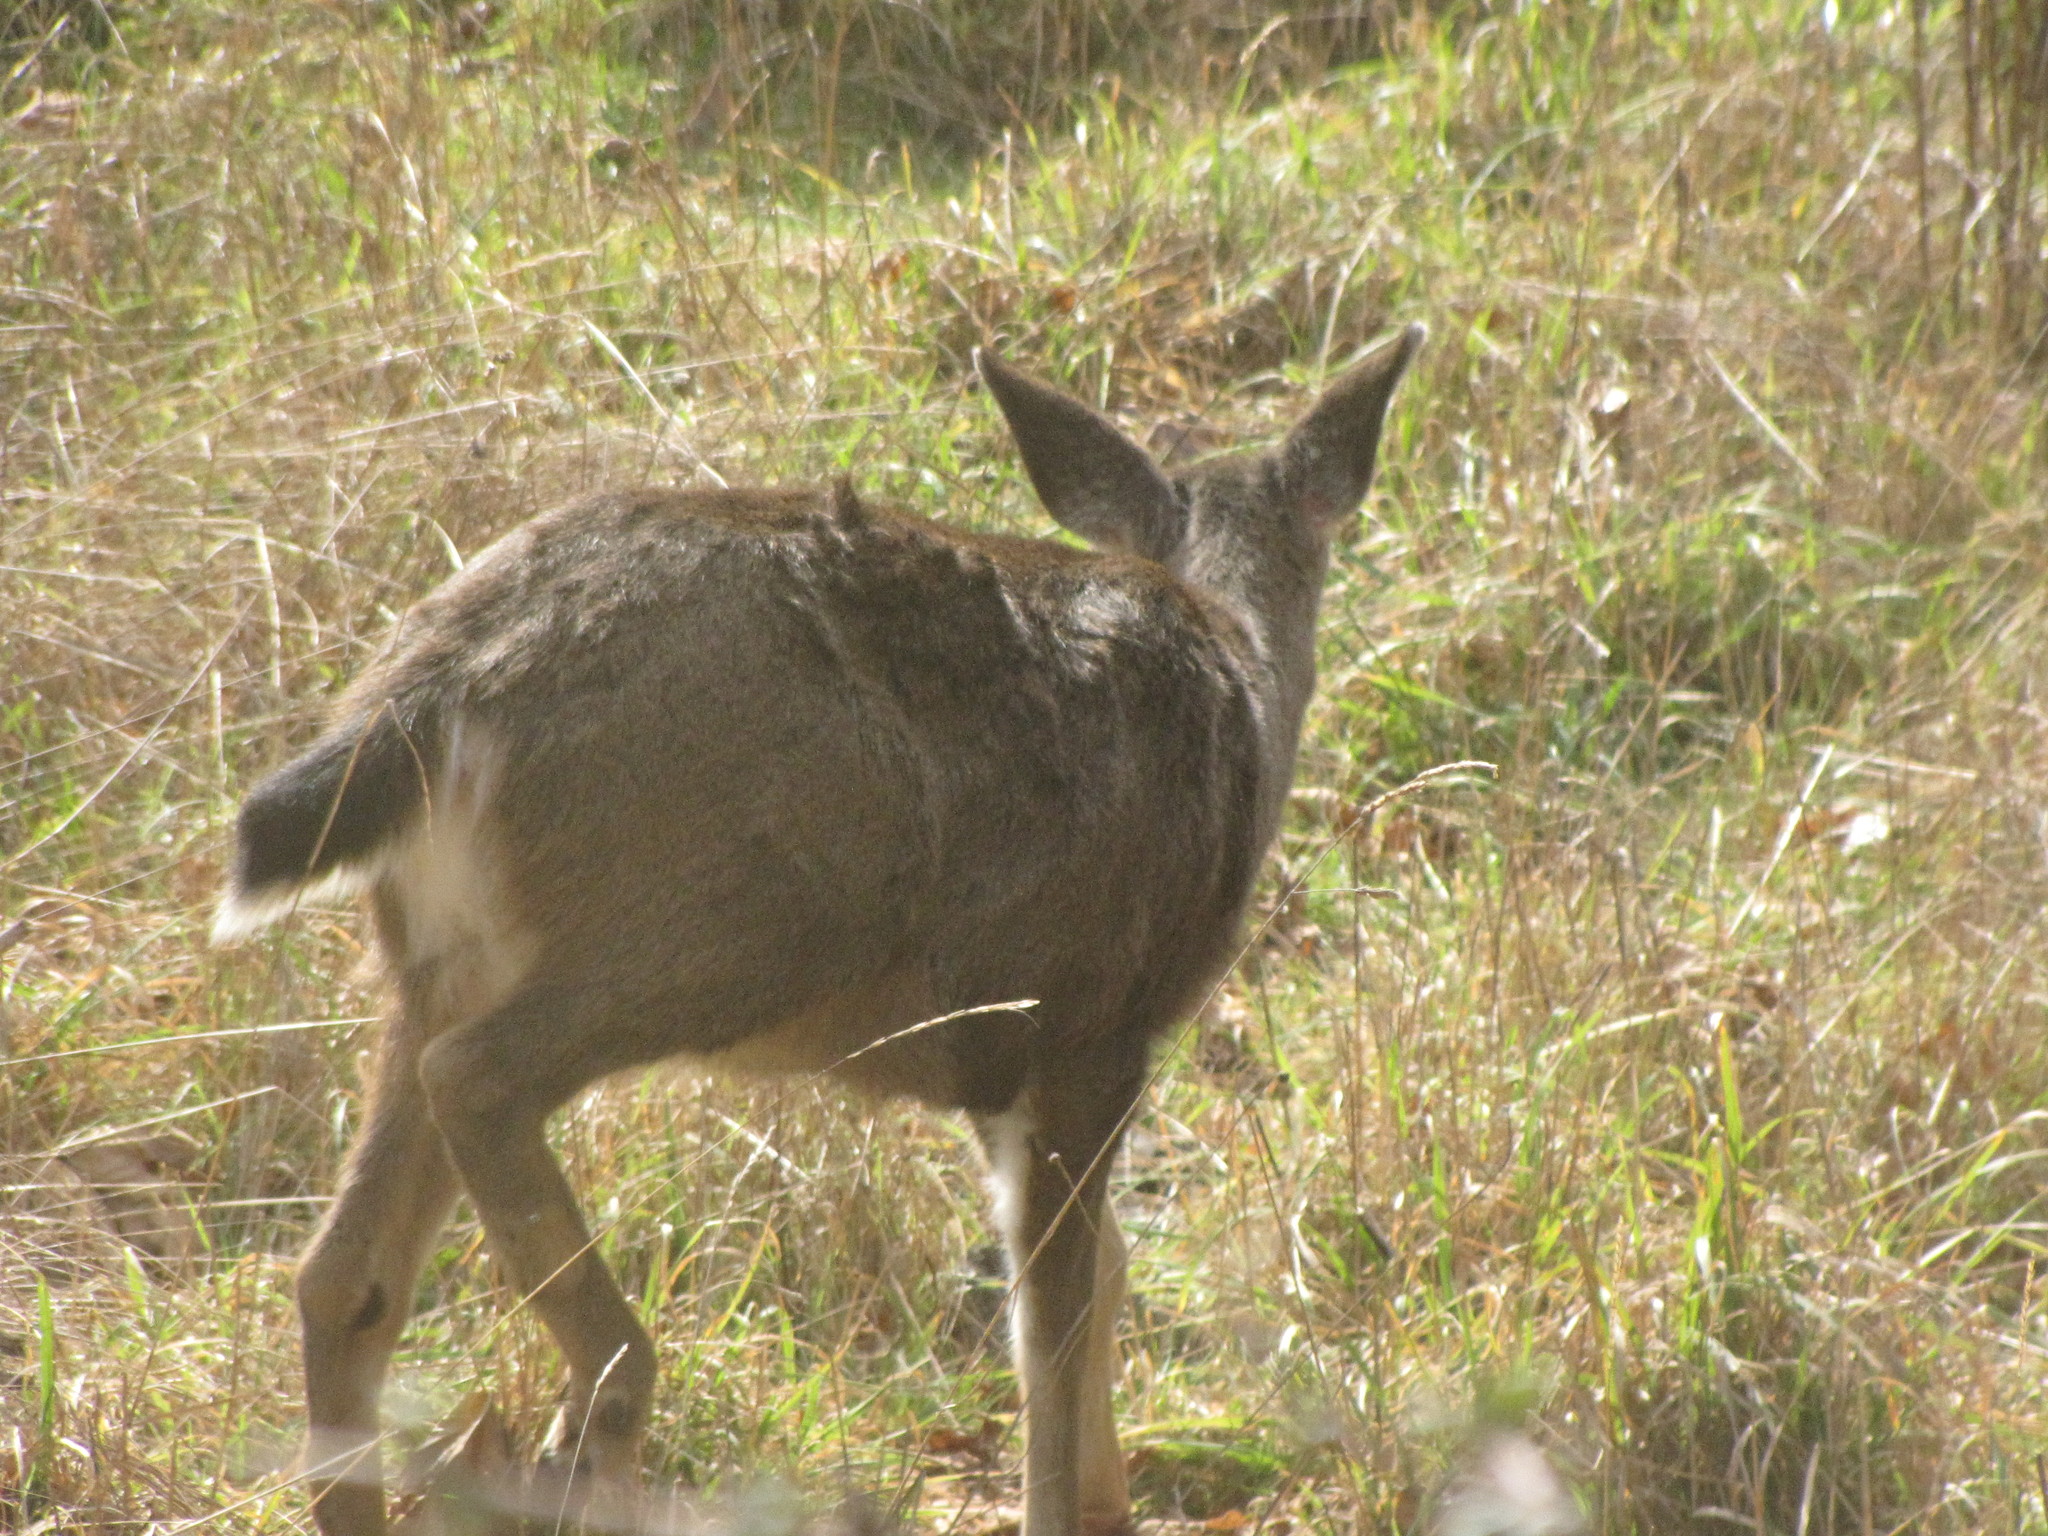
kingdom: Animalia
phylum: Chordata
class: Mammalia
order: Artiodactyla
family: Cervidae
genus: Odocoileus
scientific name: Odocoileus hemionus
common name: Mule deer
